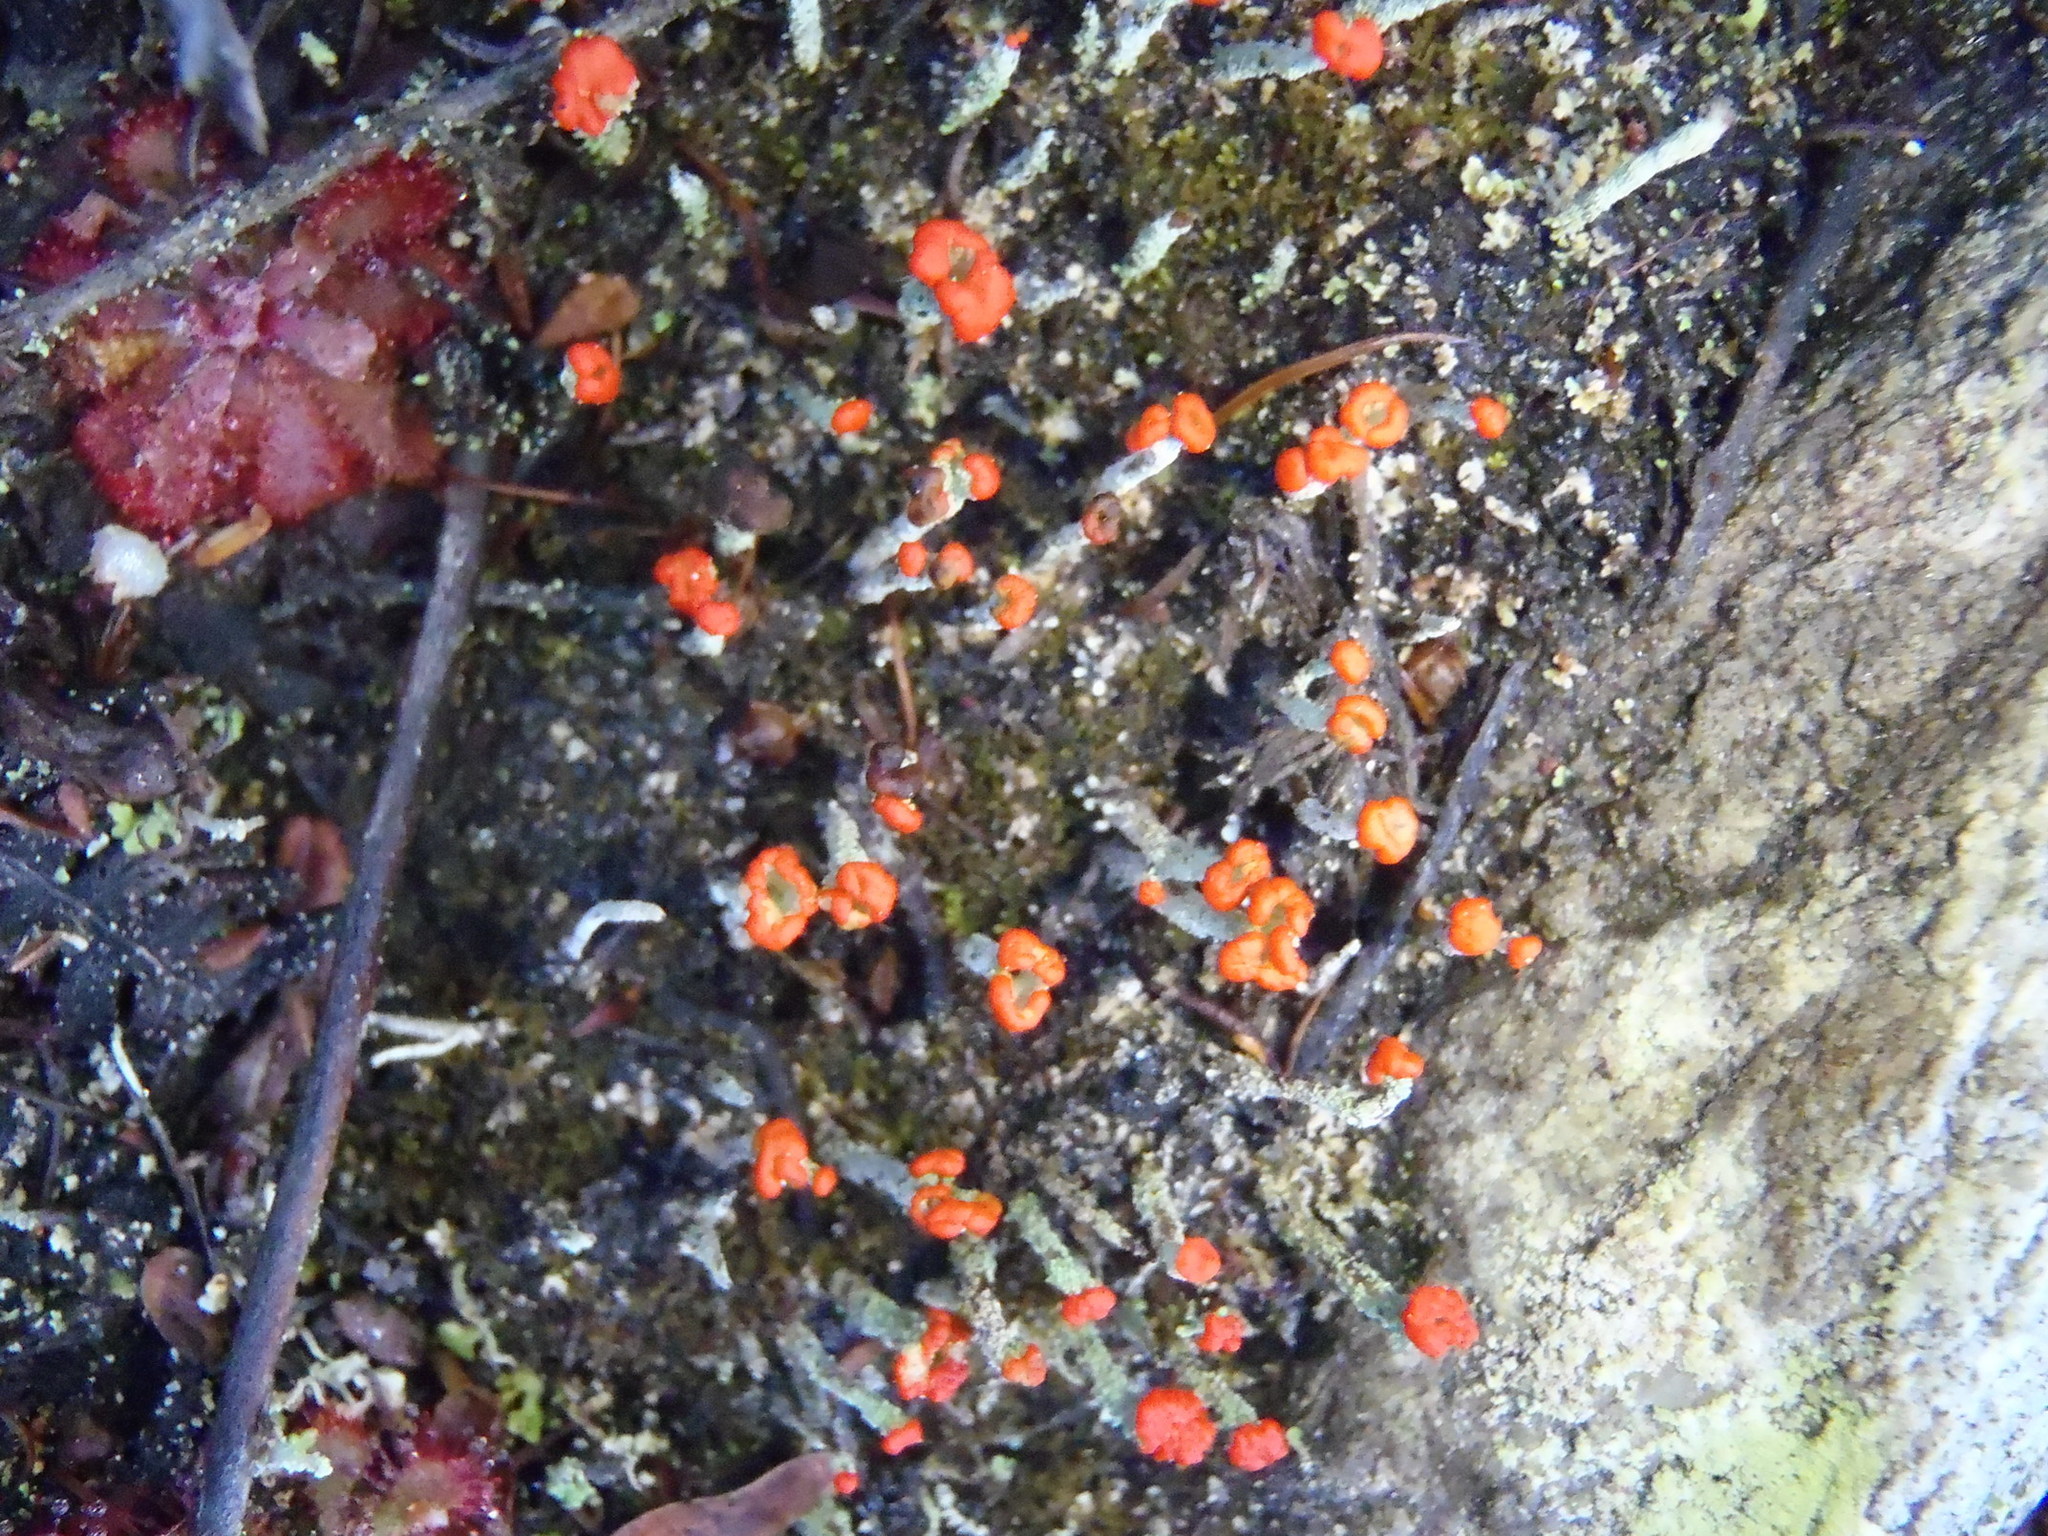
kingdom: Fungi
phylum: Ascomycota
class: Lecanoromycetes
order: Lecanorales
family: Cladoniaceae
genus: Cladonia
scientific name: Cladonia floerkeana
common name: Gritty british soldiers lichen
